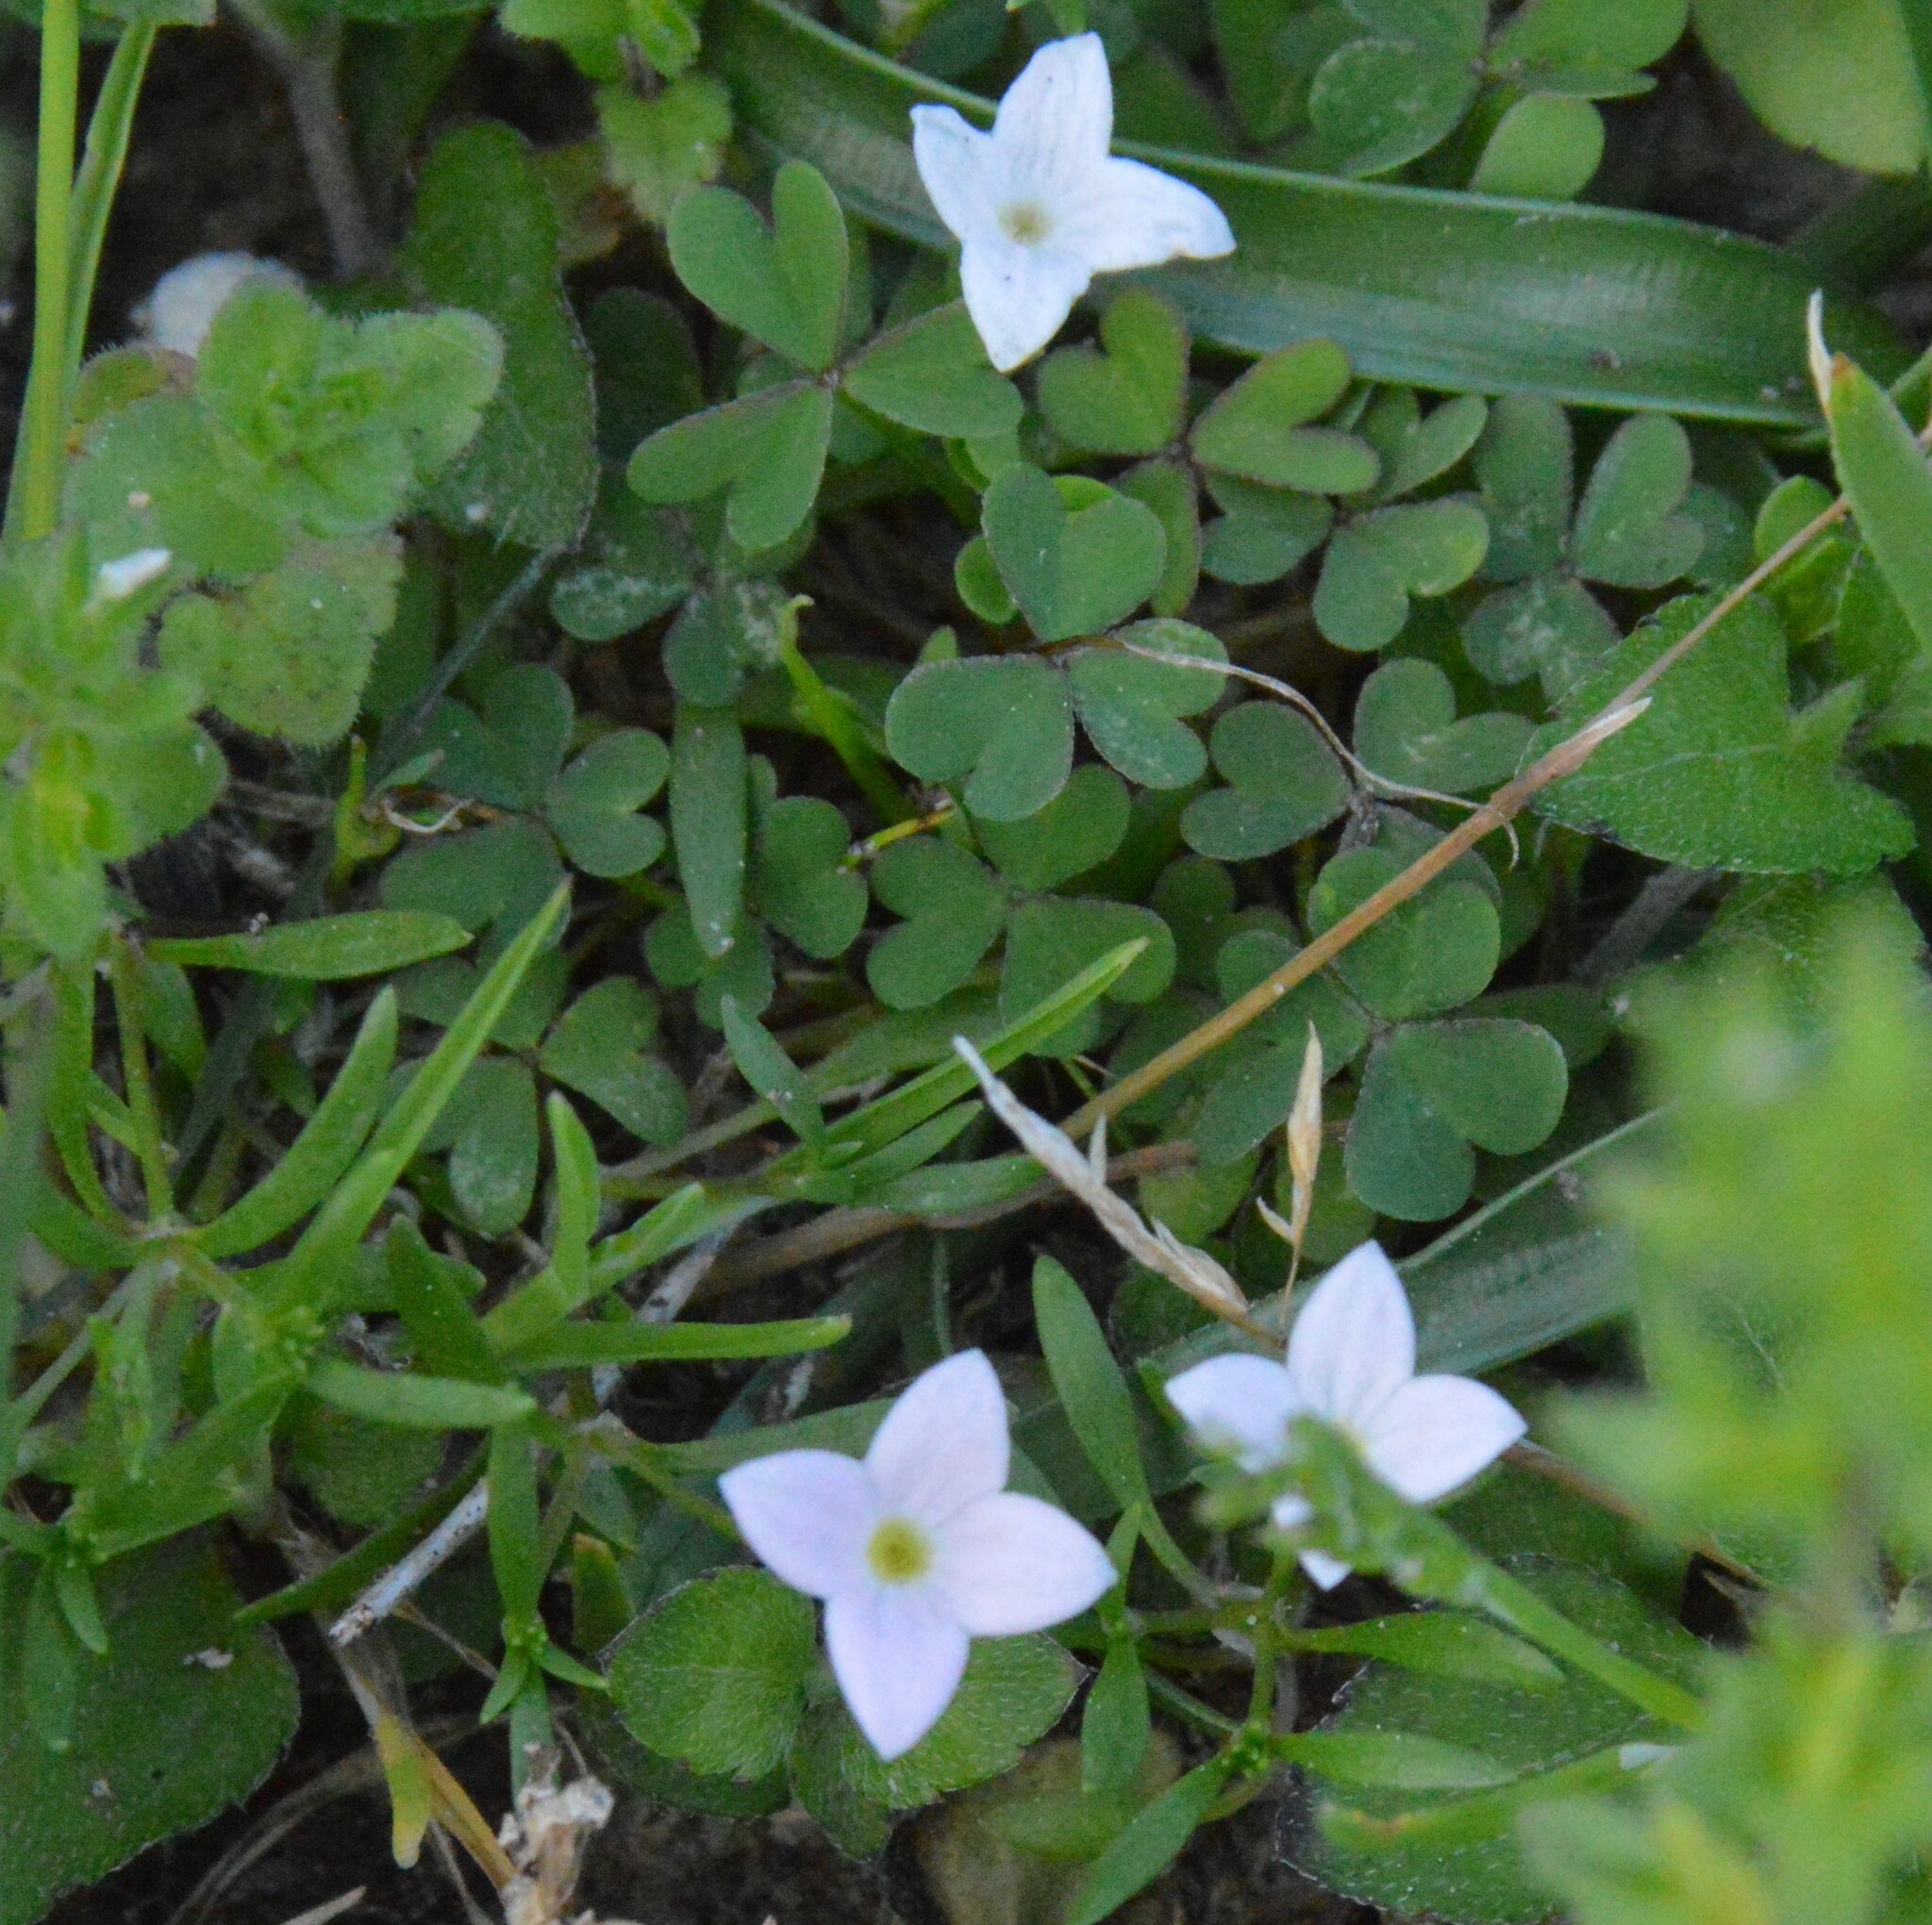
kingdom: Plantae
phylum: Tracheophyta
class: Magnoliopsida
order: Gentianales
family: Rubiaceae
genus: Houstonia
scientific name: Houstonia rosea
